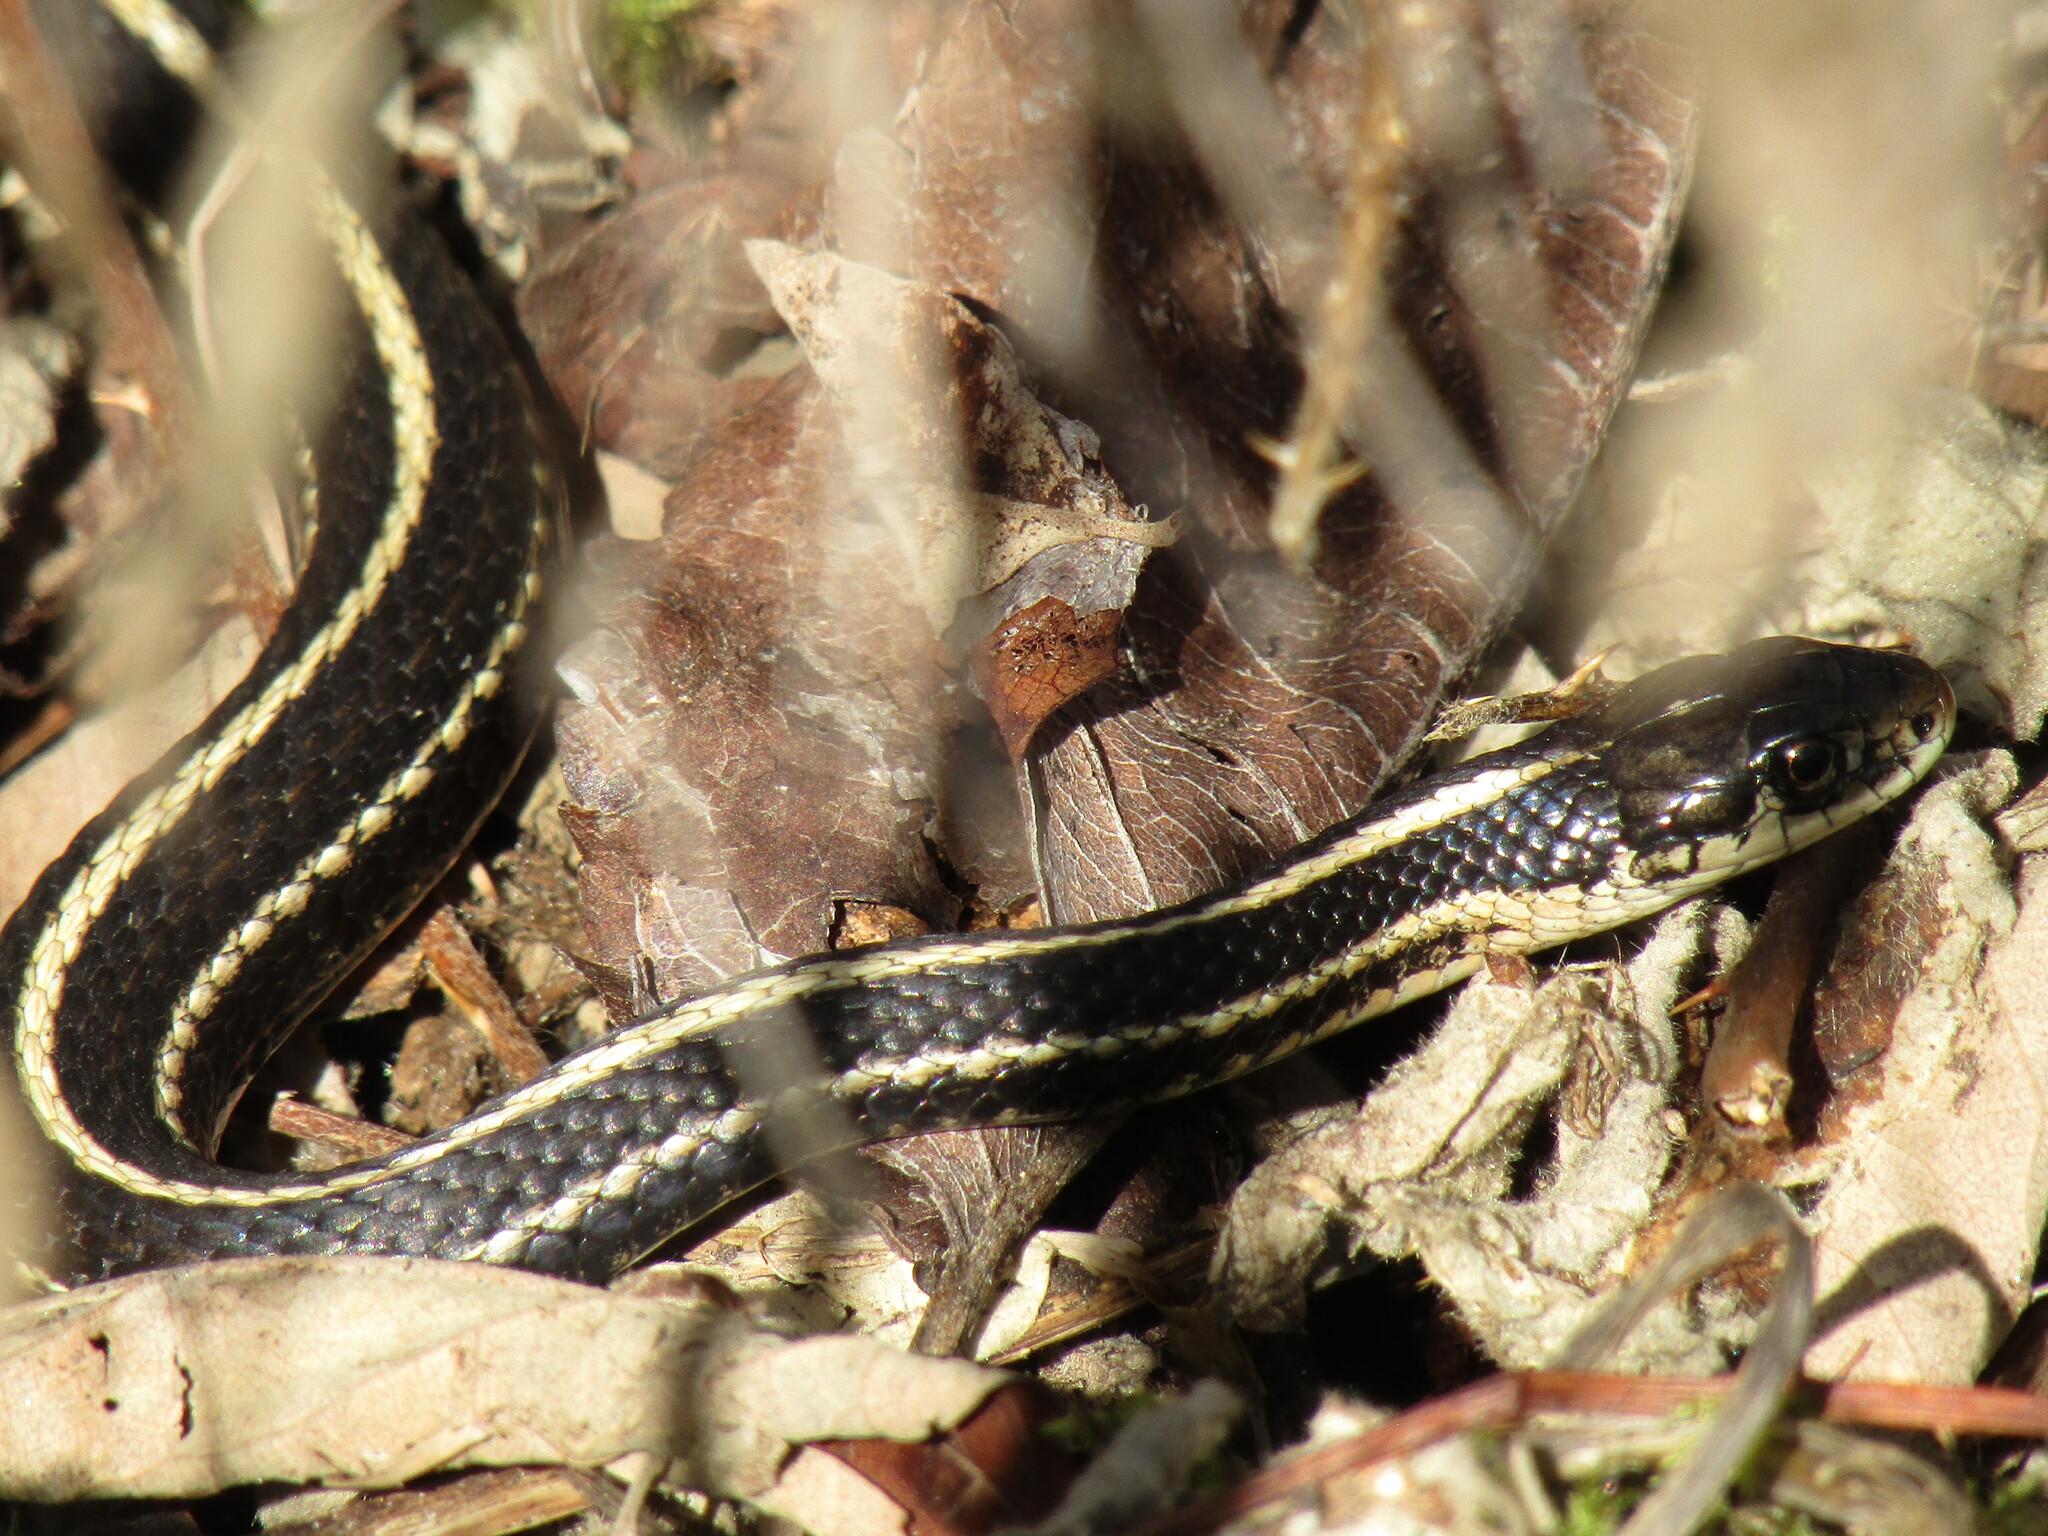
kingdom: Animalia
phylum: Chordata
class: Squamata
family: Colubridae
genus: Thamnophis
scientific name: Thamnophis ordinoides
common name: Northwestern garter snake
